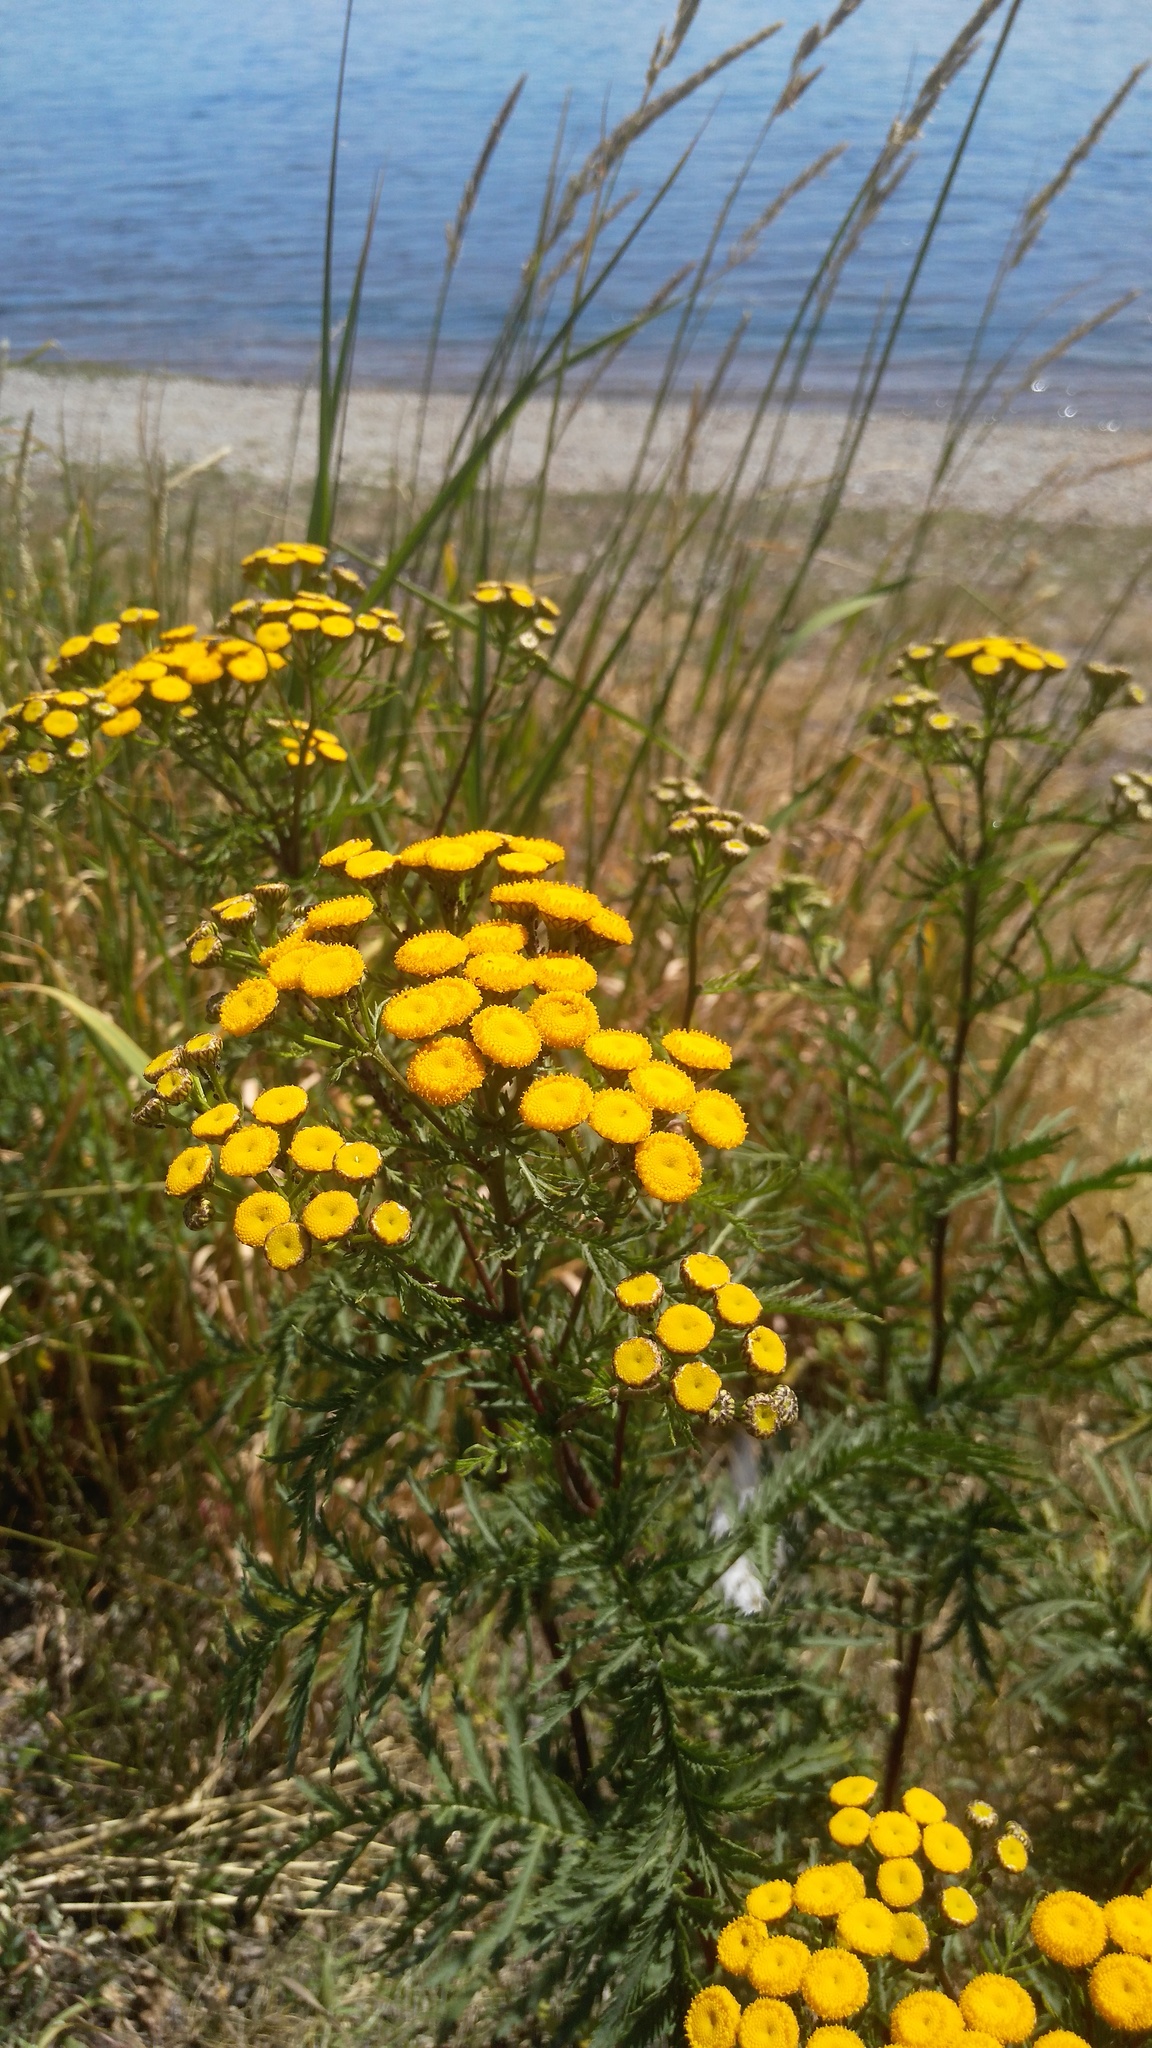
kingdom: Plantae
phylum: Tracheophyta
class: Magnoliopsida
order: Asterales
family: Asteraceae
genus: Tanacetum
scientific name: Tanacetum vulgare
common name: Common tansy
